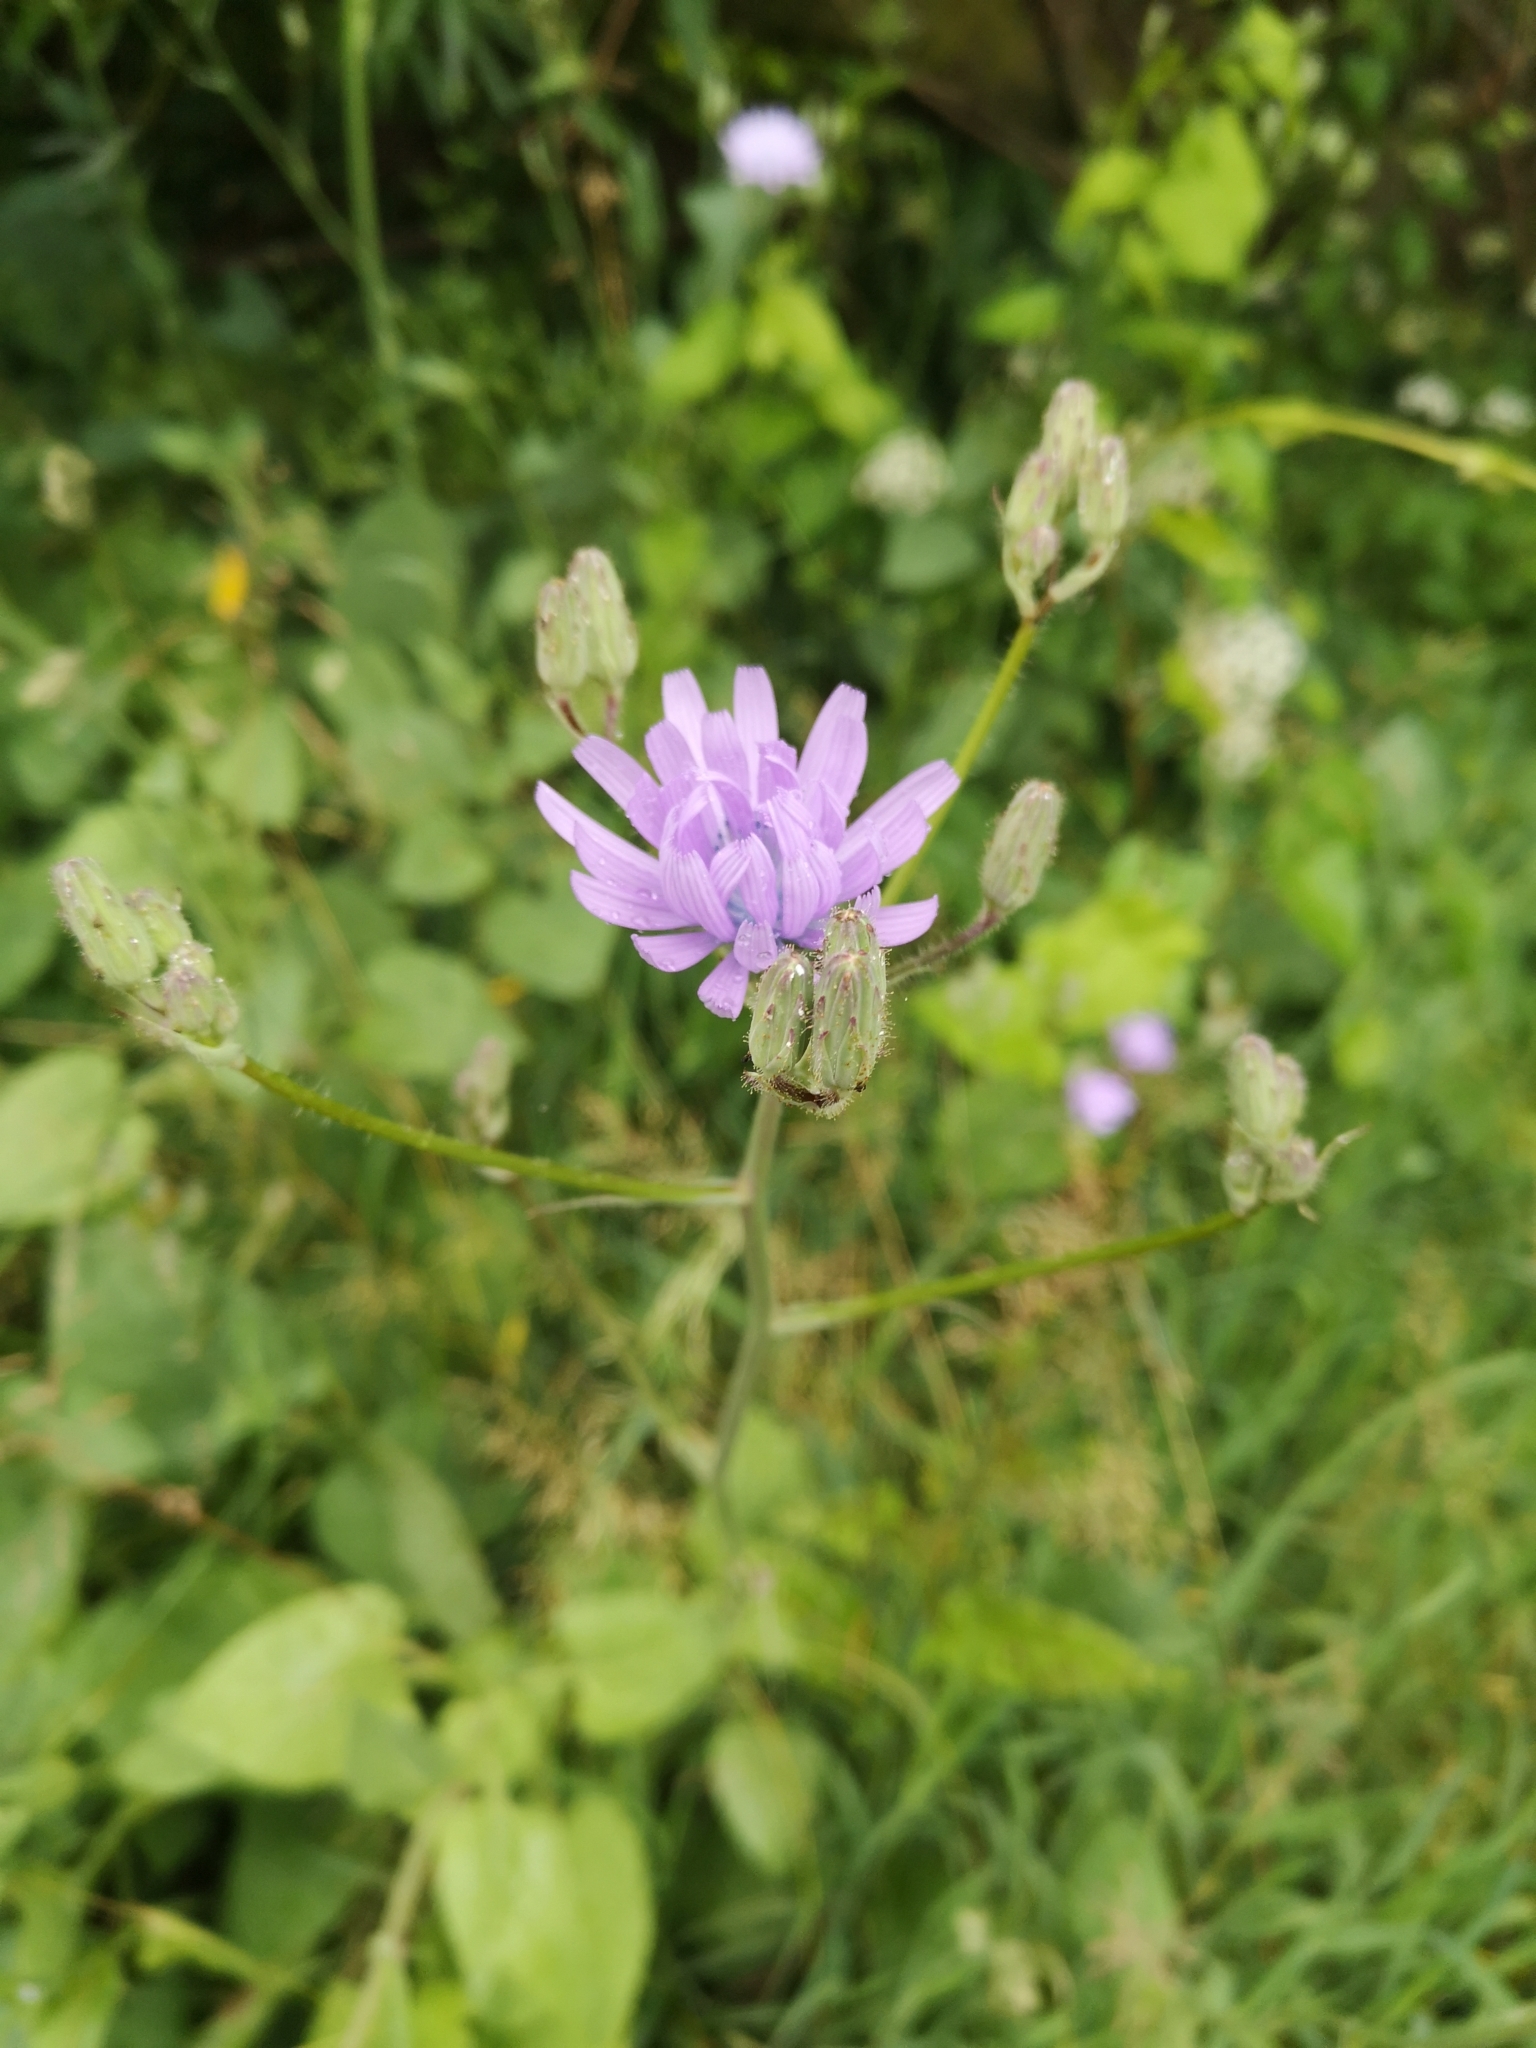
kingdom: Plantae
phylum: Tracheophyta
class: Magnoliopsida
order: Asterales
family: Asteraceae
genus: Lactuca
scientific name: Lactuca macrophylla
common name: Common blue-sow-thistle
